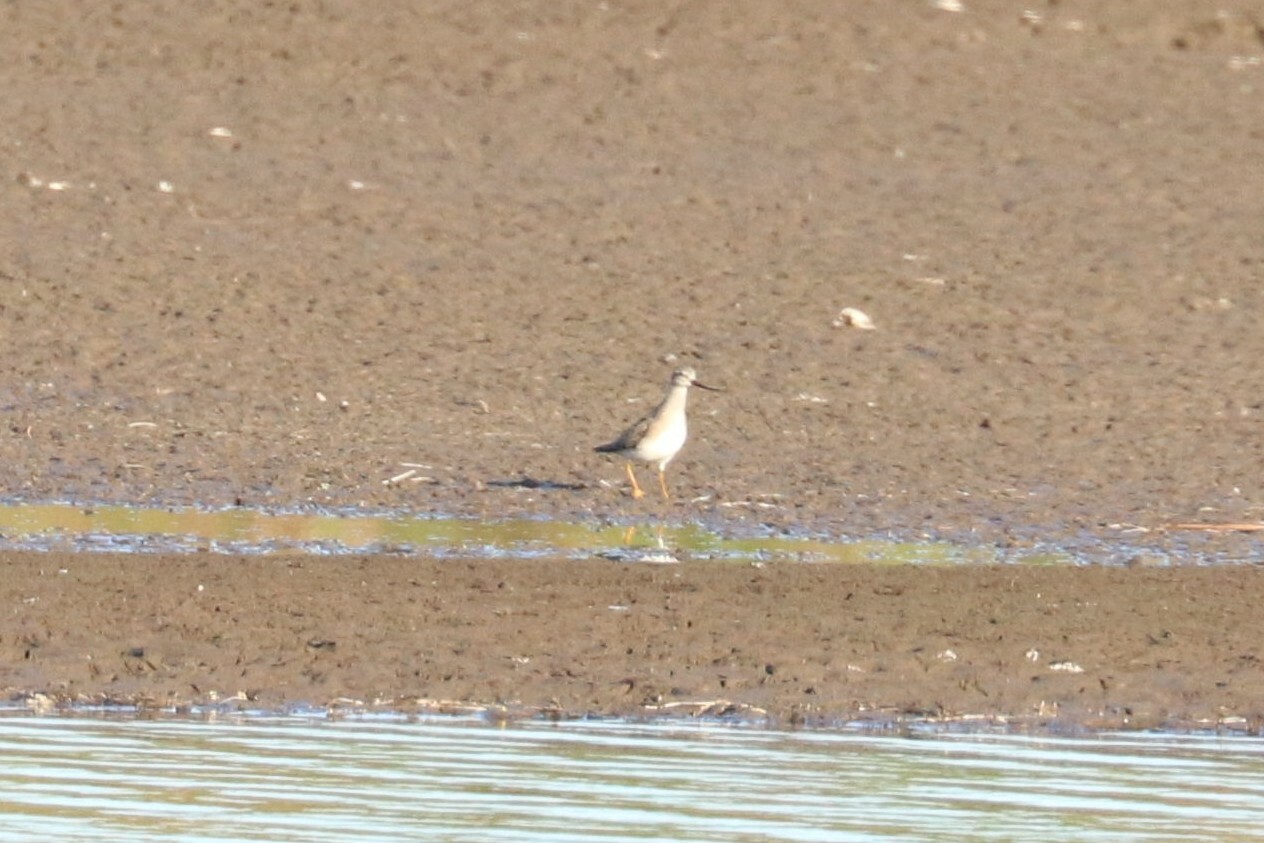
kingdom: Animalia
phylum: Chordata
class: Aves
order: Charadriiformes
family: Scolopacidae
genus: Xenus
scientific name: Xenus cinereus
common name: Terek sandpiper
